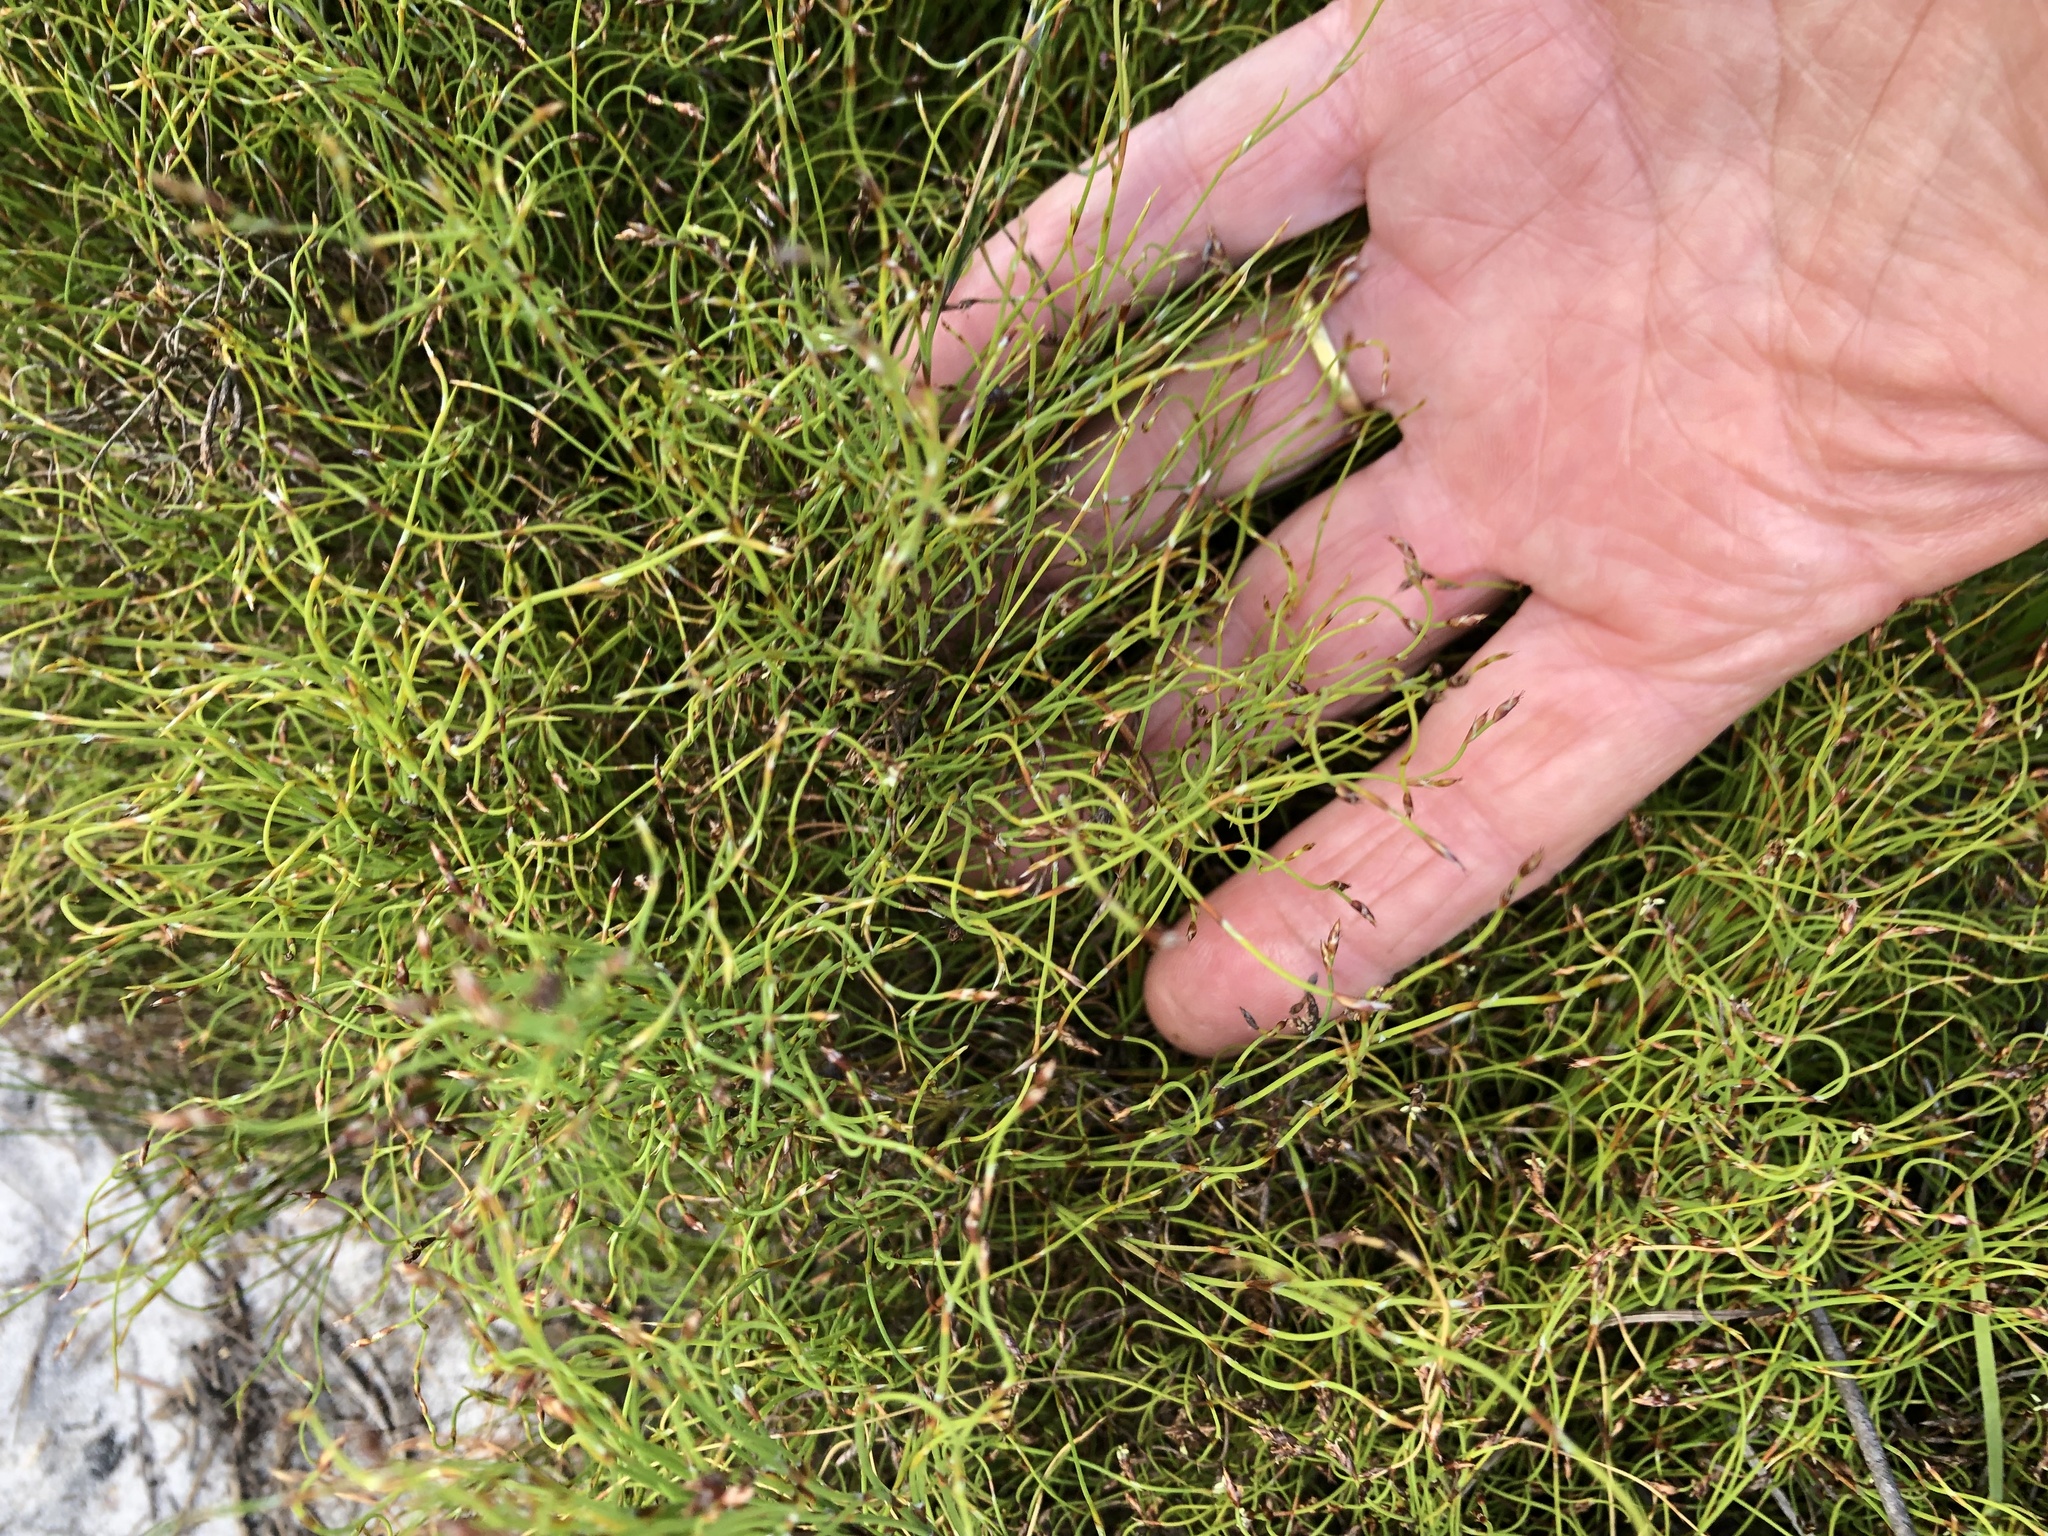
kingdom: Plantae
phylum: Tracheophyta
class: Liliopsida
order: Poales
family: Restionaceae
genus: Restio
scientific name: Restio cincinnatus
